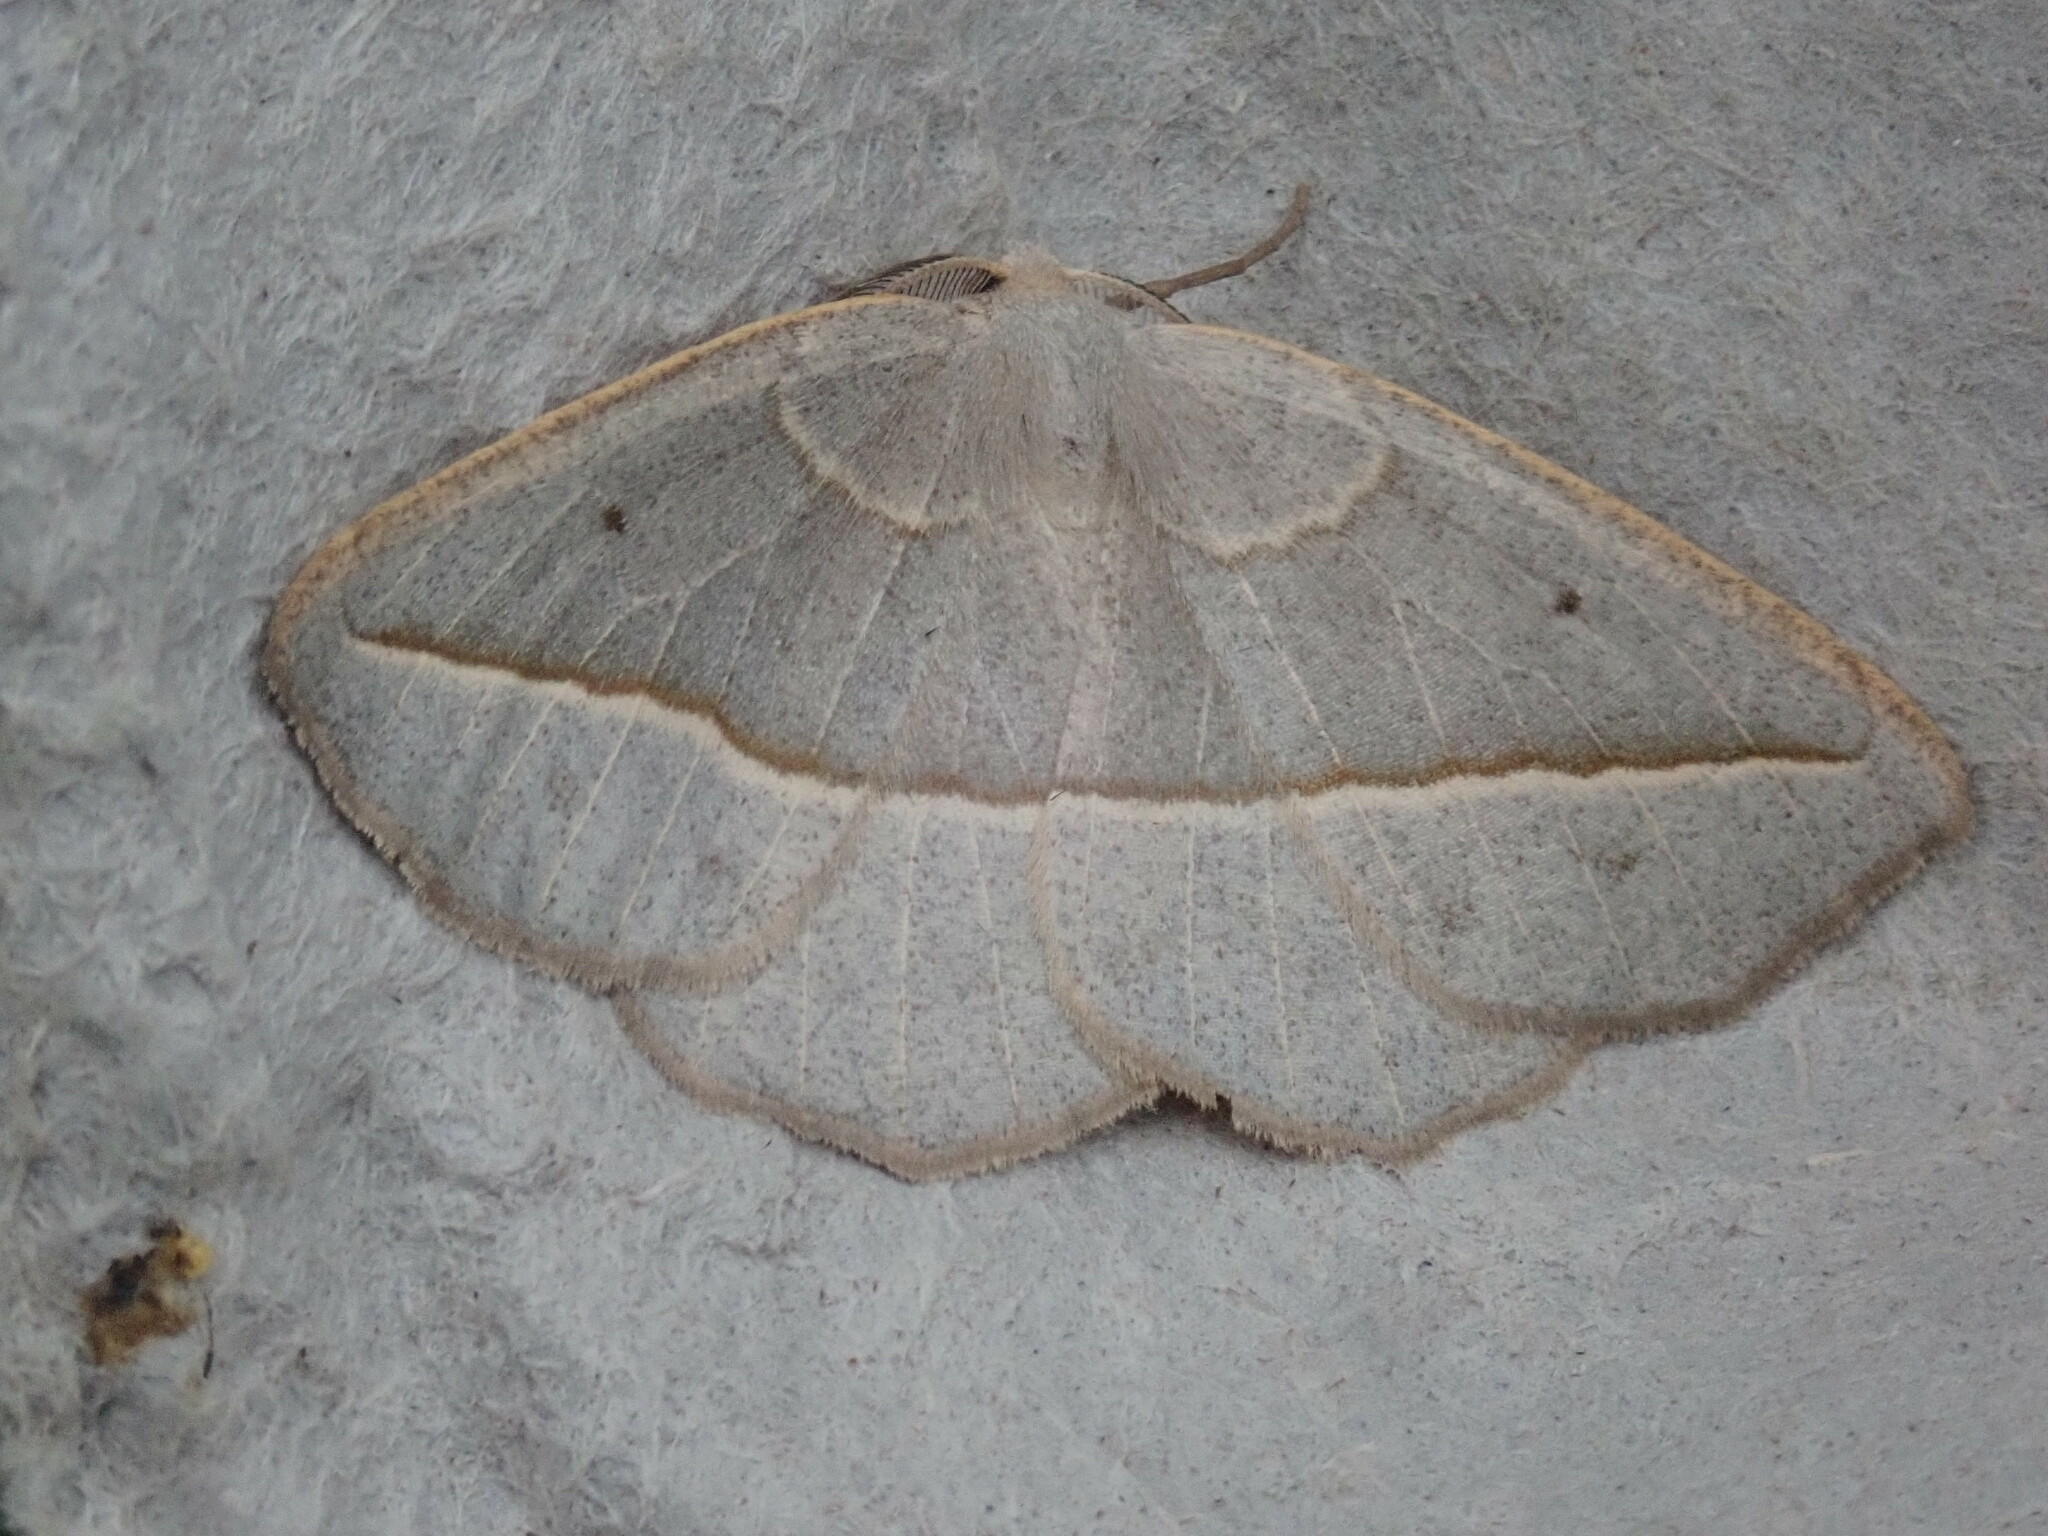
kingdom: Animalia
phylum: Arthropoda
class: Insecta
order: Lepidoptera
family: Geometridae
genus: Eusarca
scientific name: Eusarca confusaria
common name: Confused eusarca
